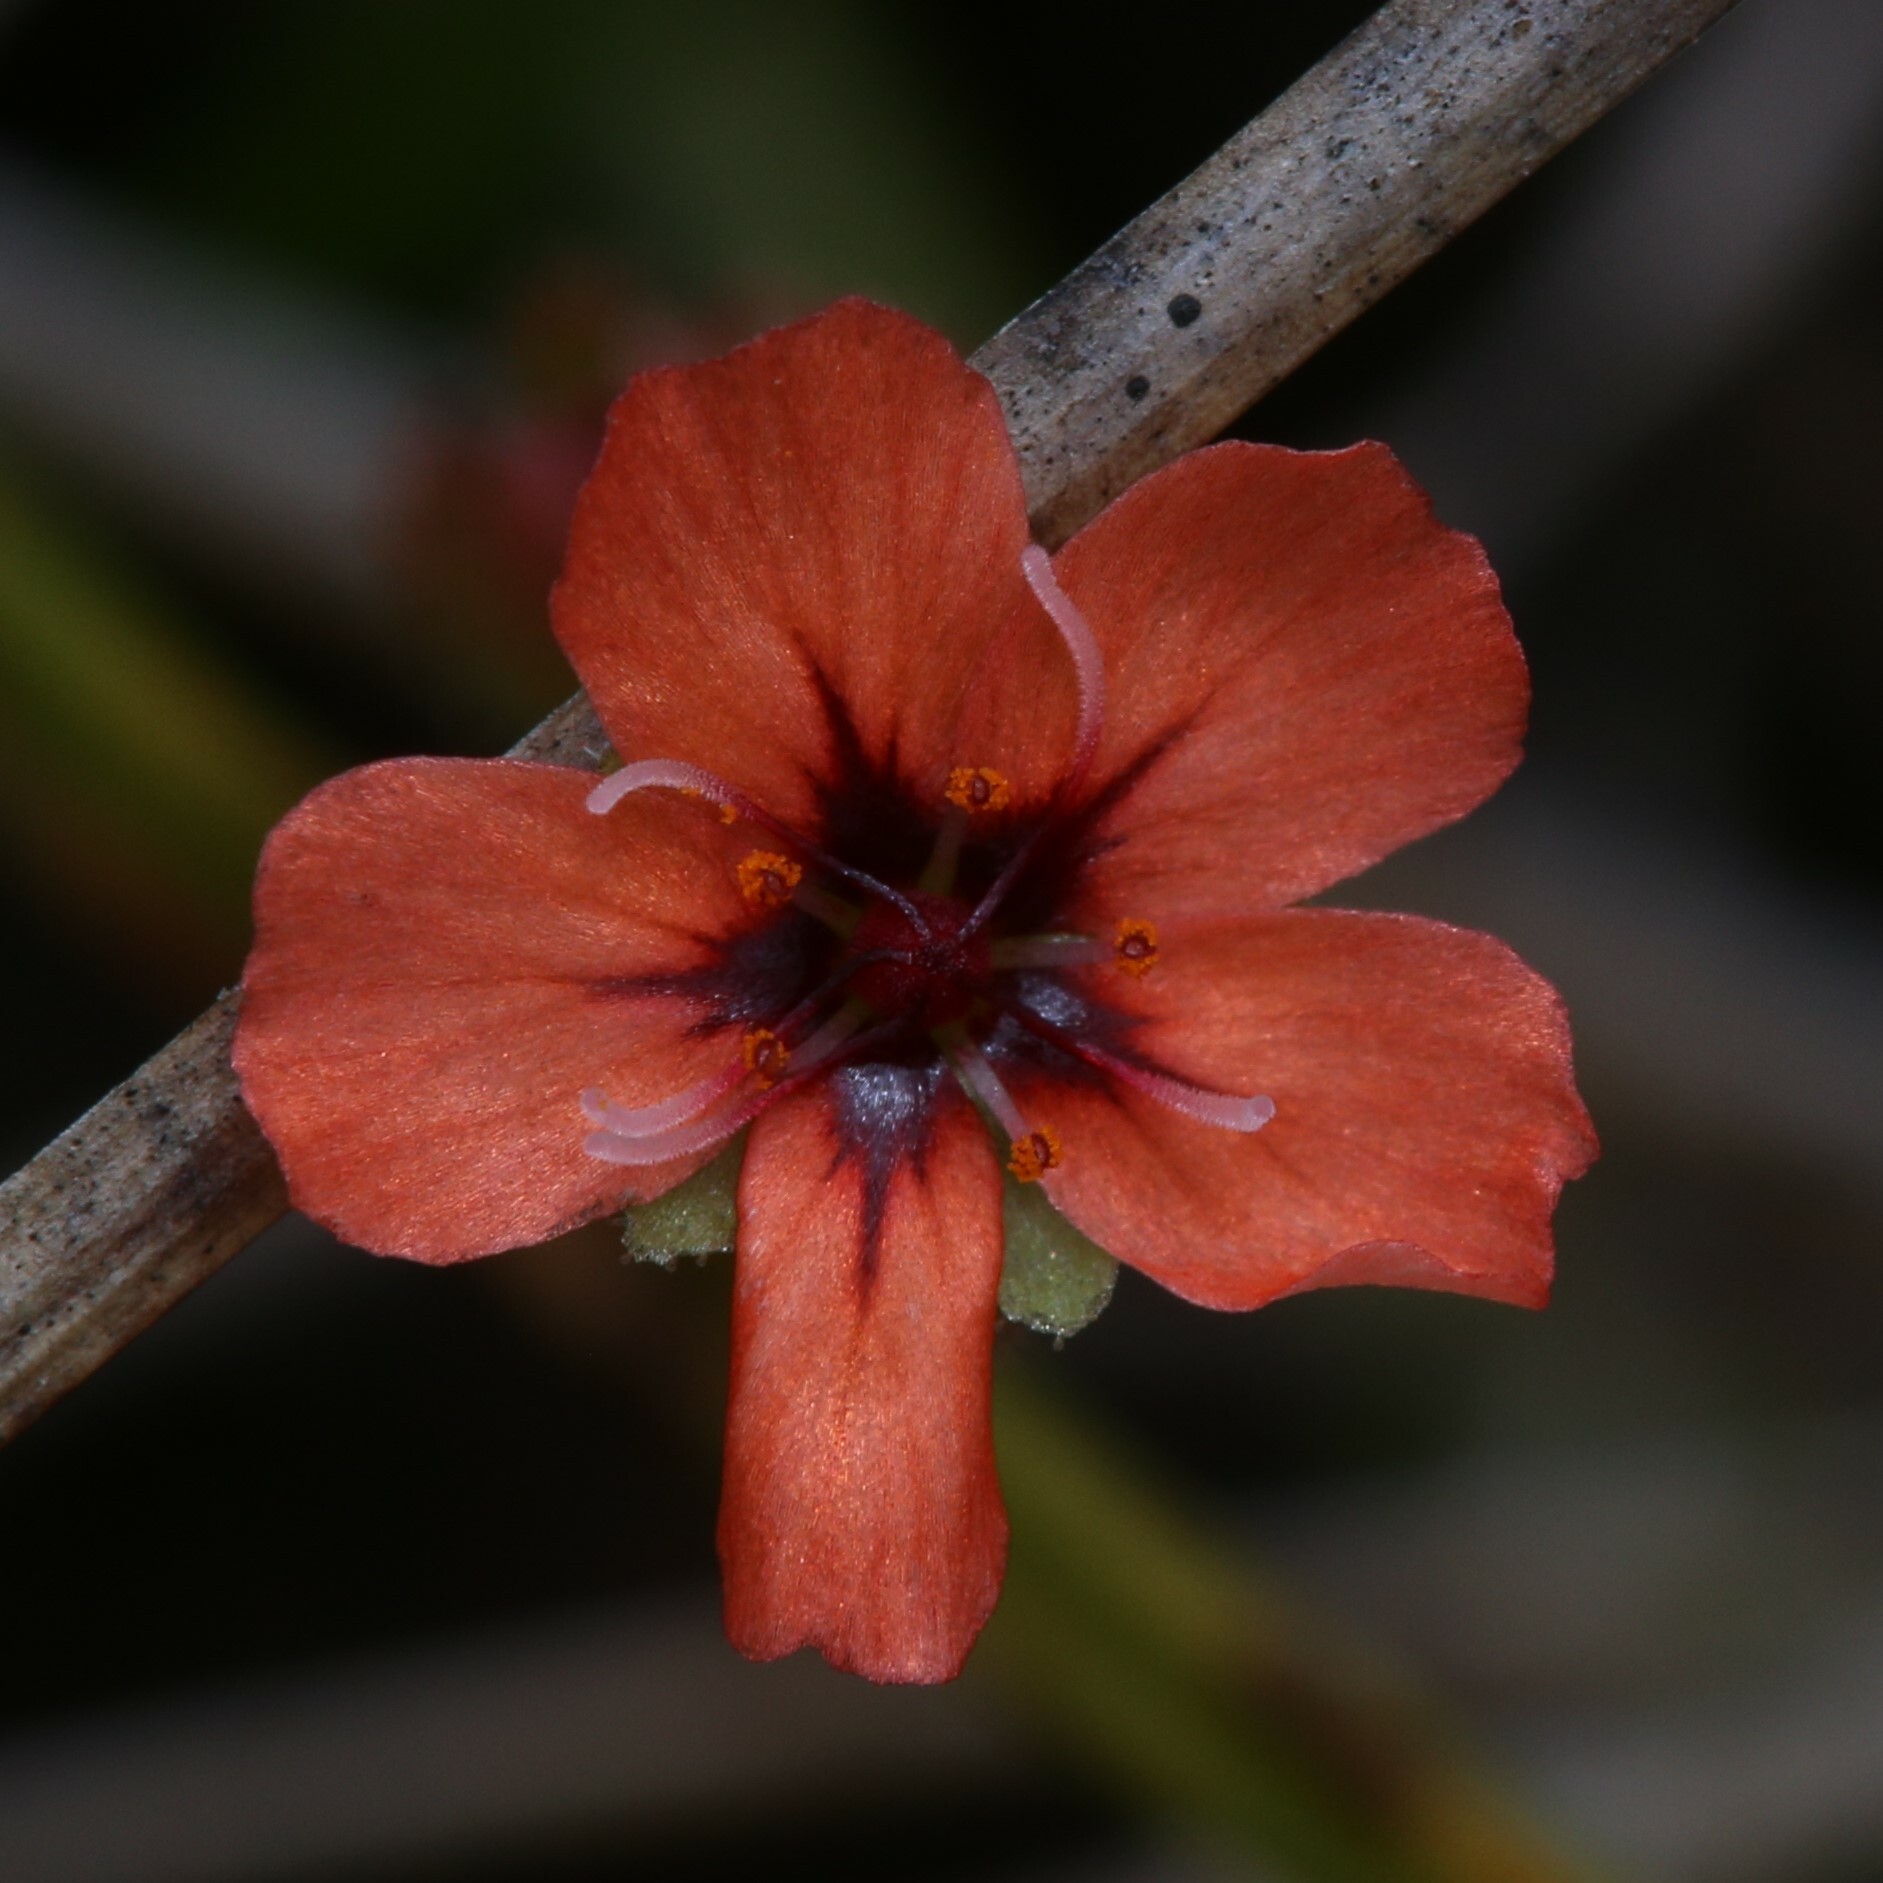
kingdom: Plantae
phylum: Tracheophyta
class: Magnoliopsida
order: Caryophyllales
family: Droseraceae
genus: Drosera
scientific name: Drosera pulchella
